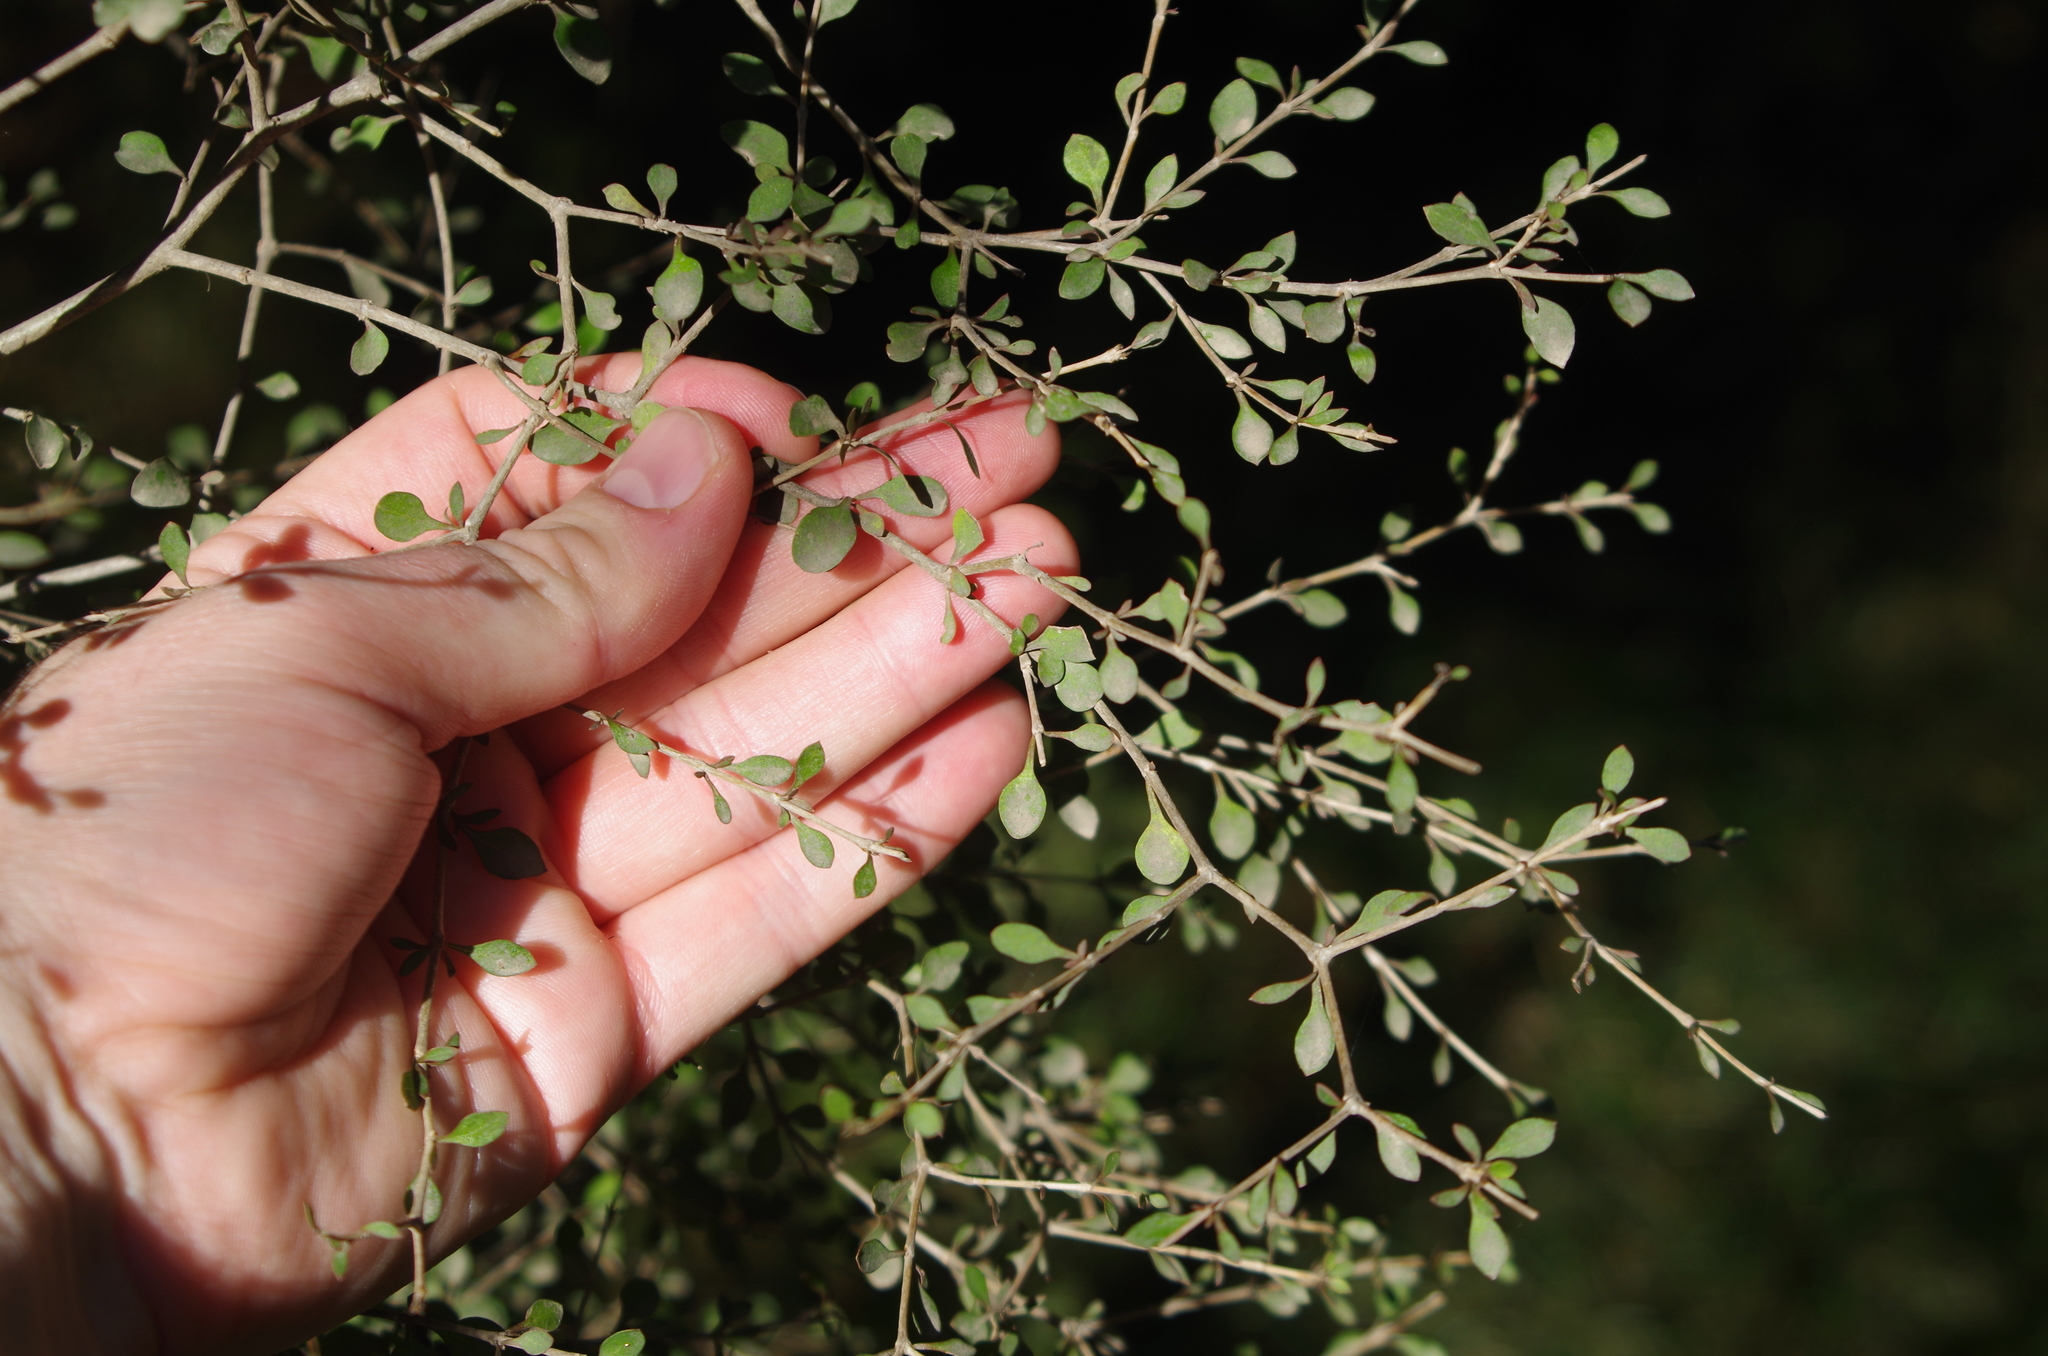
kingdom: Plantae
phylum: Tracheophyta
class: Magnoliopsida
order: Gentianales
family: Rubiaceae
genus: Coprosma
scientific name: Coprosma virescens
